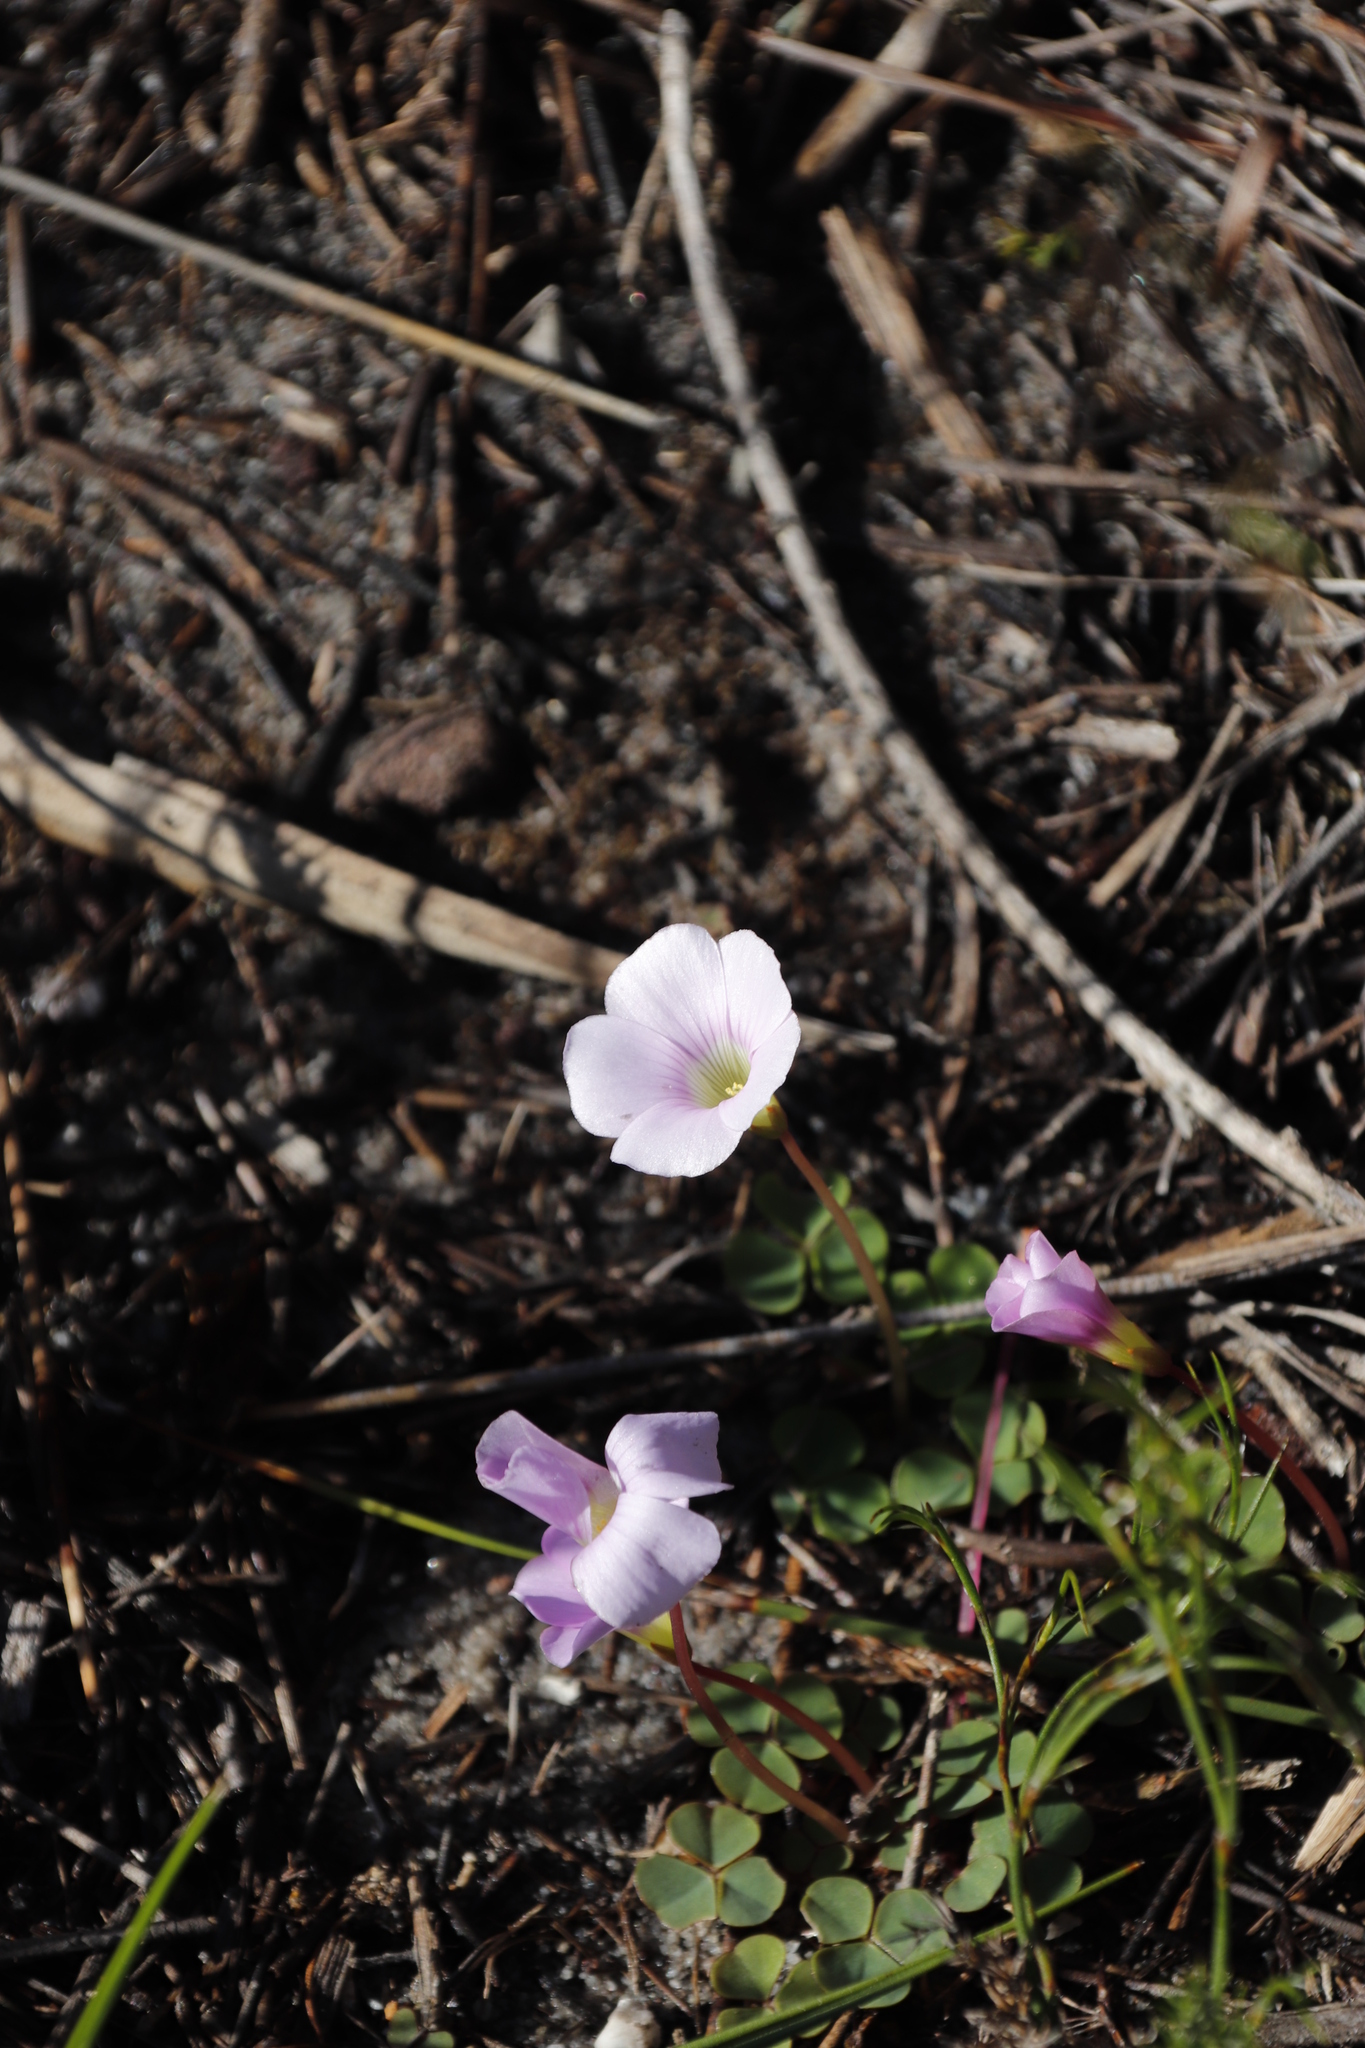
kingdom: Plantae
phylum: Tracheophyta
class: Magnoliopsida
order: Oxalidales
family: Oxalidaceae
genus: Oxalis
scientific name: Oxalis commutata
